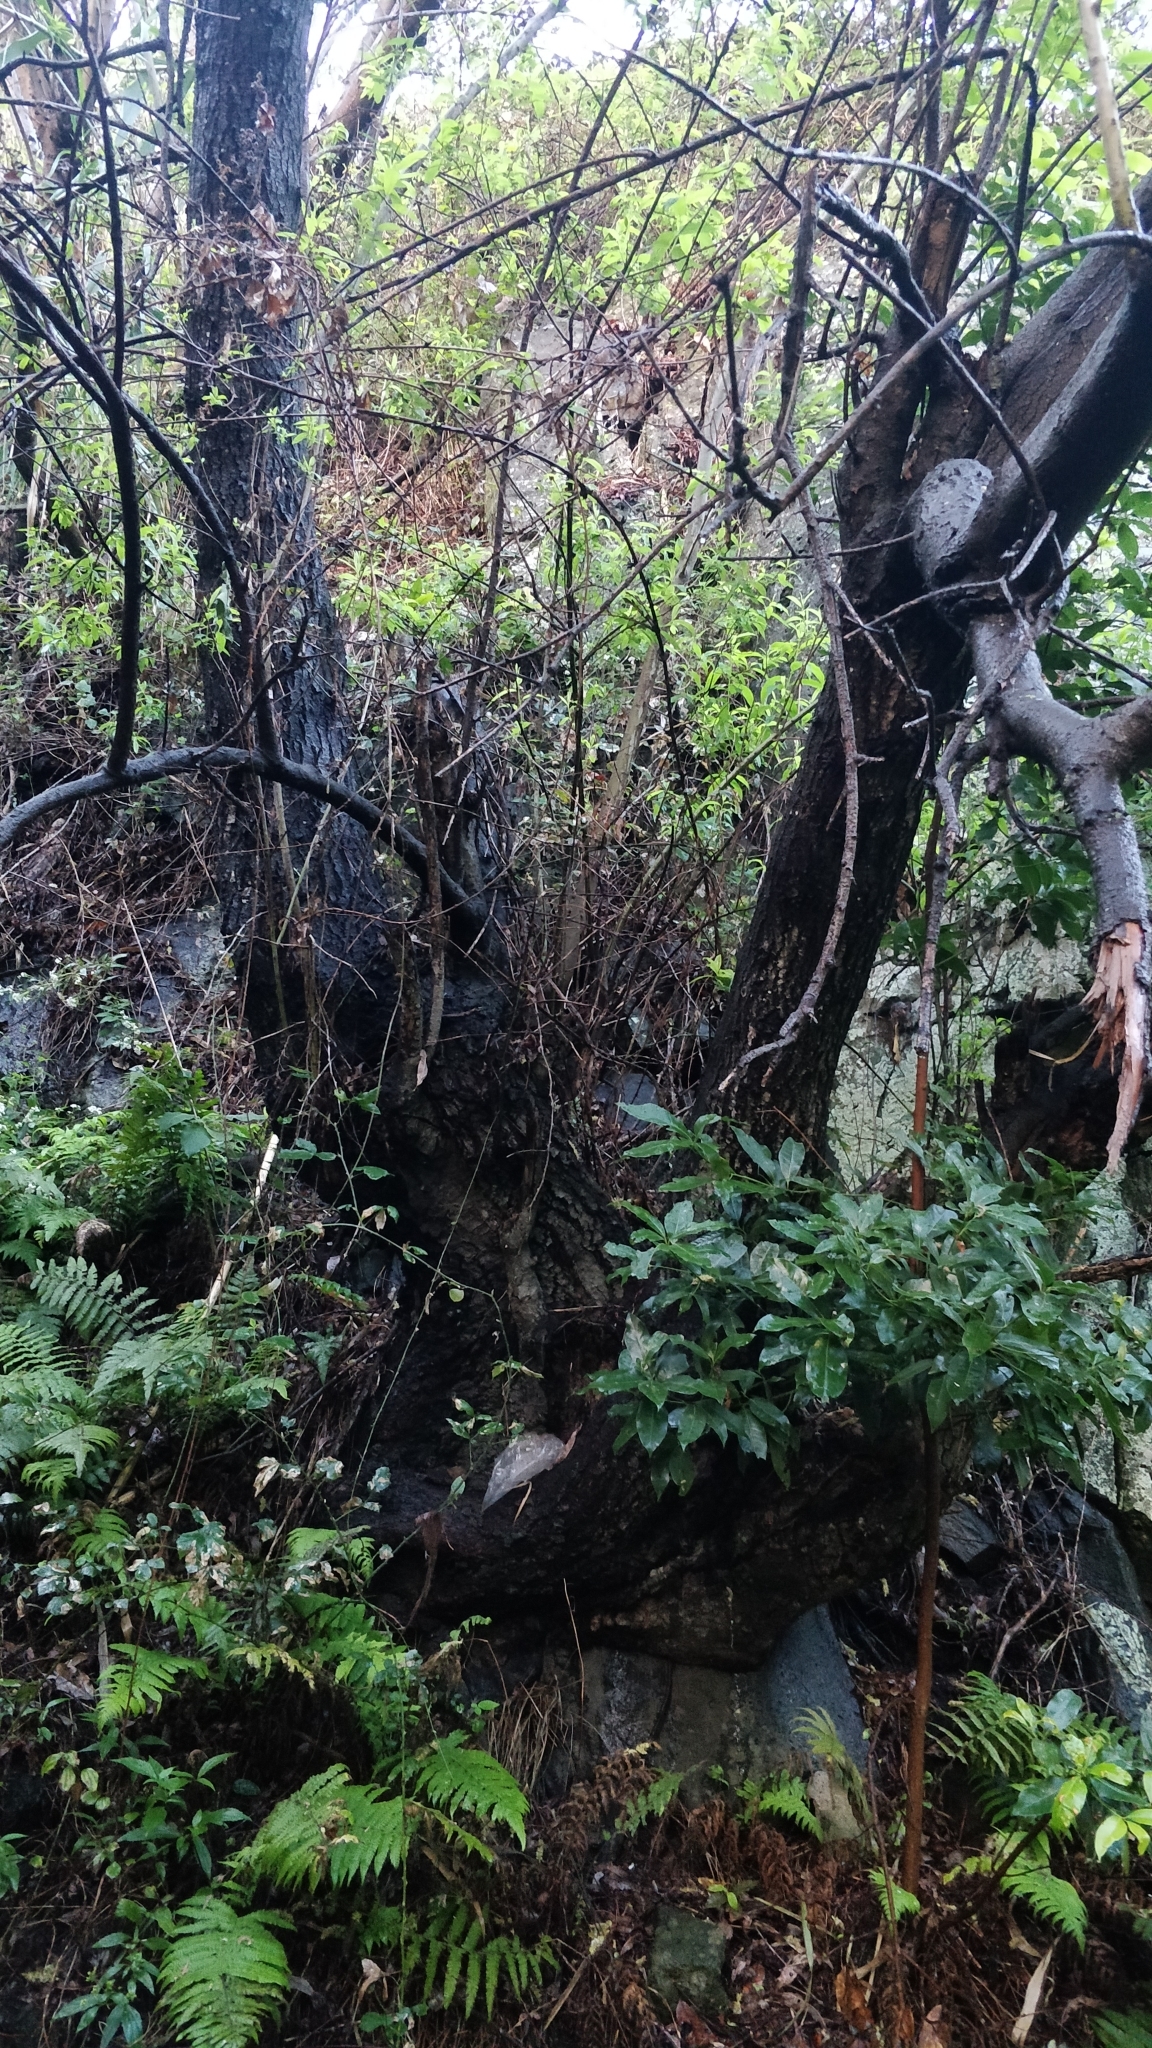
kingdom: Plantae
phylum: Tracheophyta
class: Magnoliopsida
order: Malpighiales
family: Salicaceae
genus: Salix
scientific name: Salix canariensis
